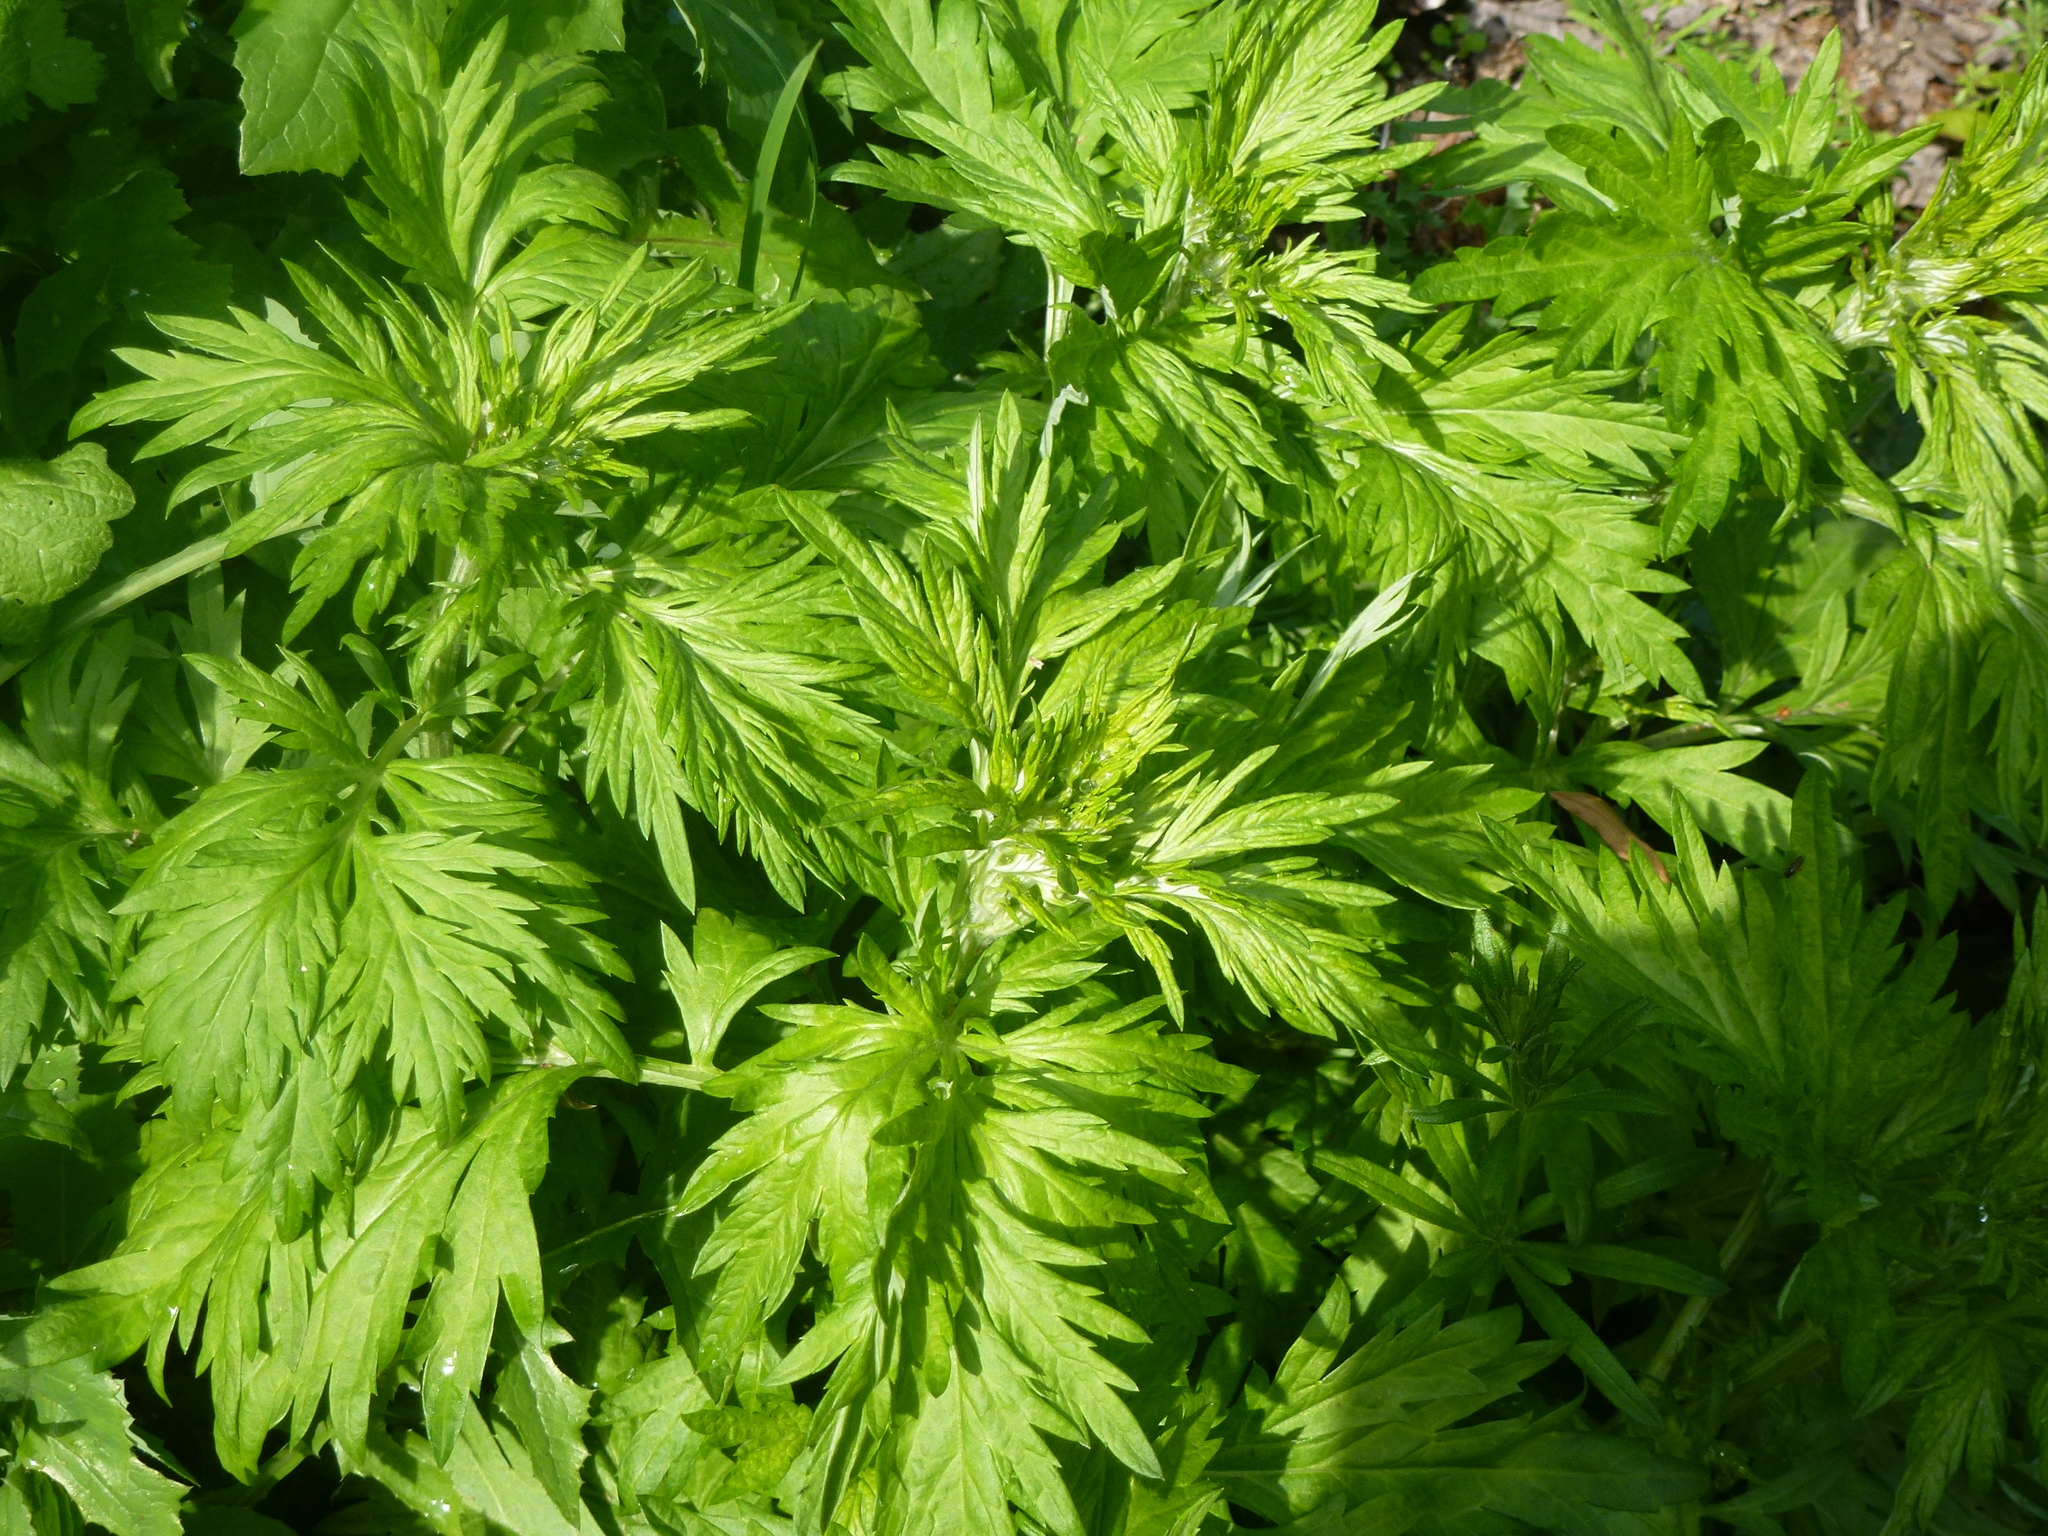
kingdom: Plantae
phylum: Tracheophyta
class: Magnoliopsida
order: Asterales
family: Asteraceae
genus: Artemisia
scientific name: Artemisia vulgaris
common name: Mugwort
